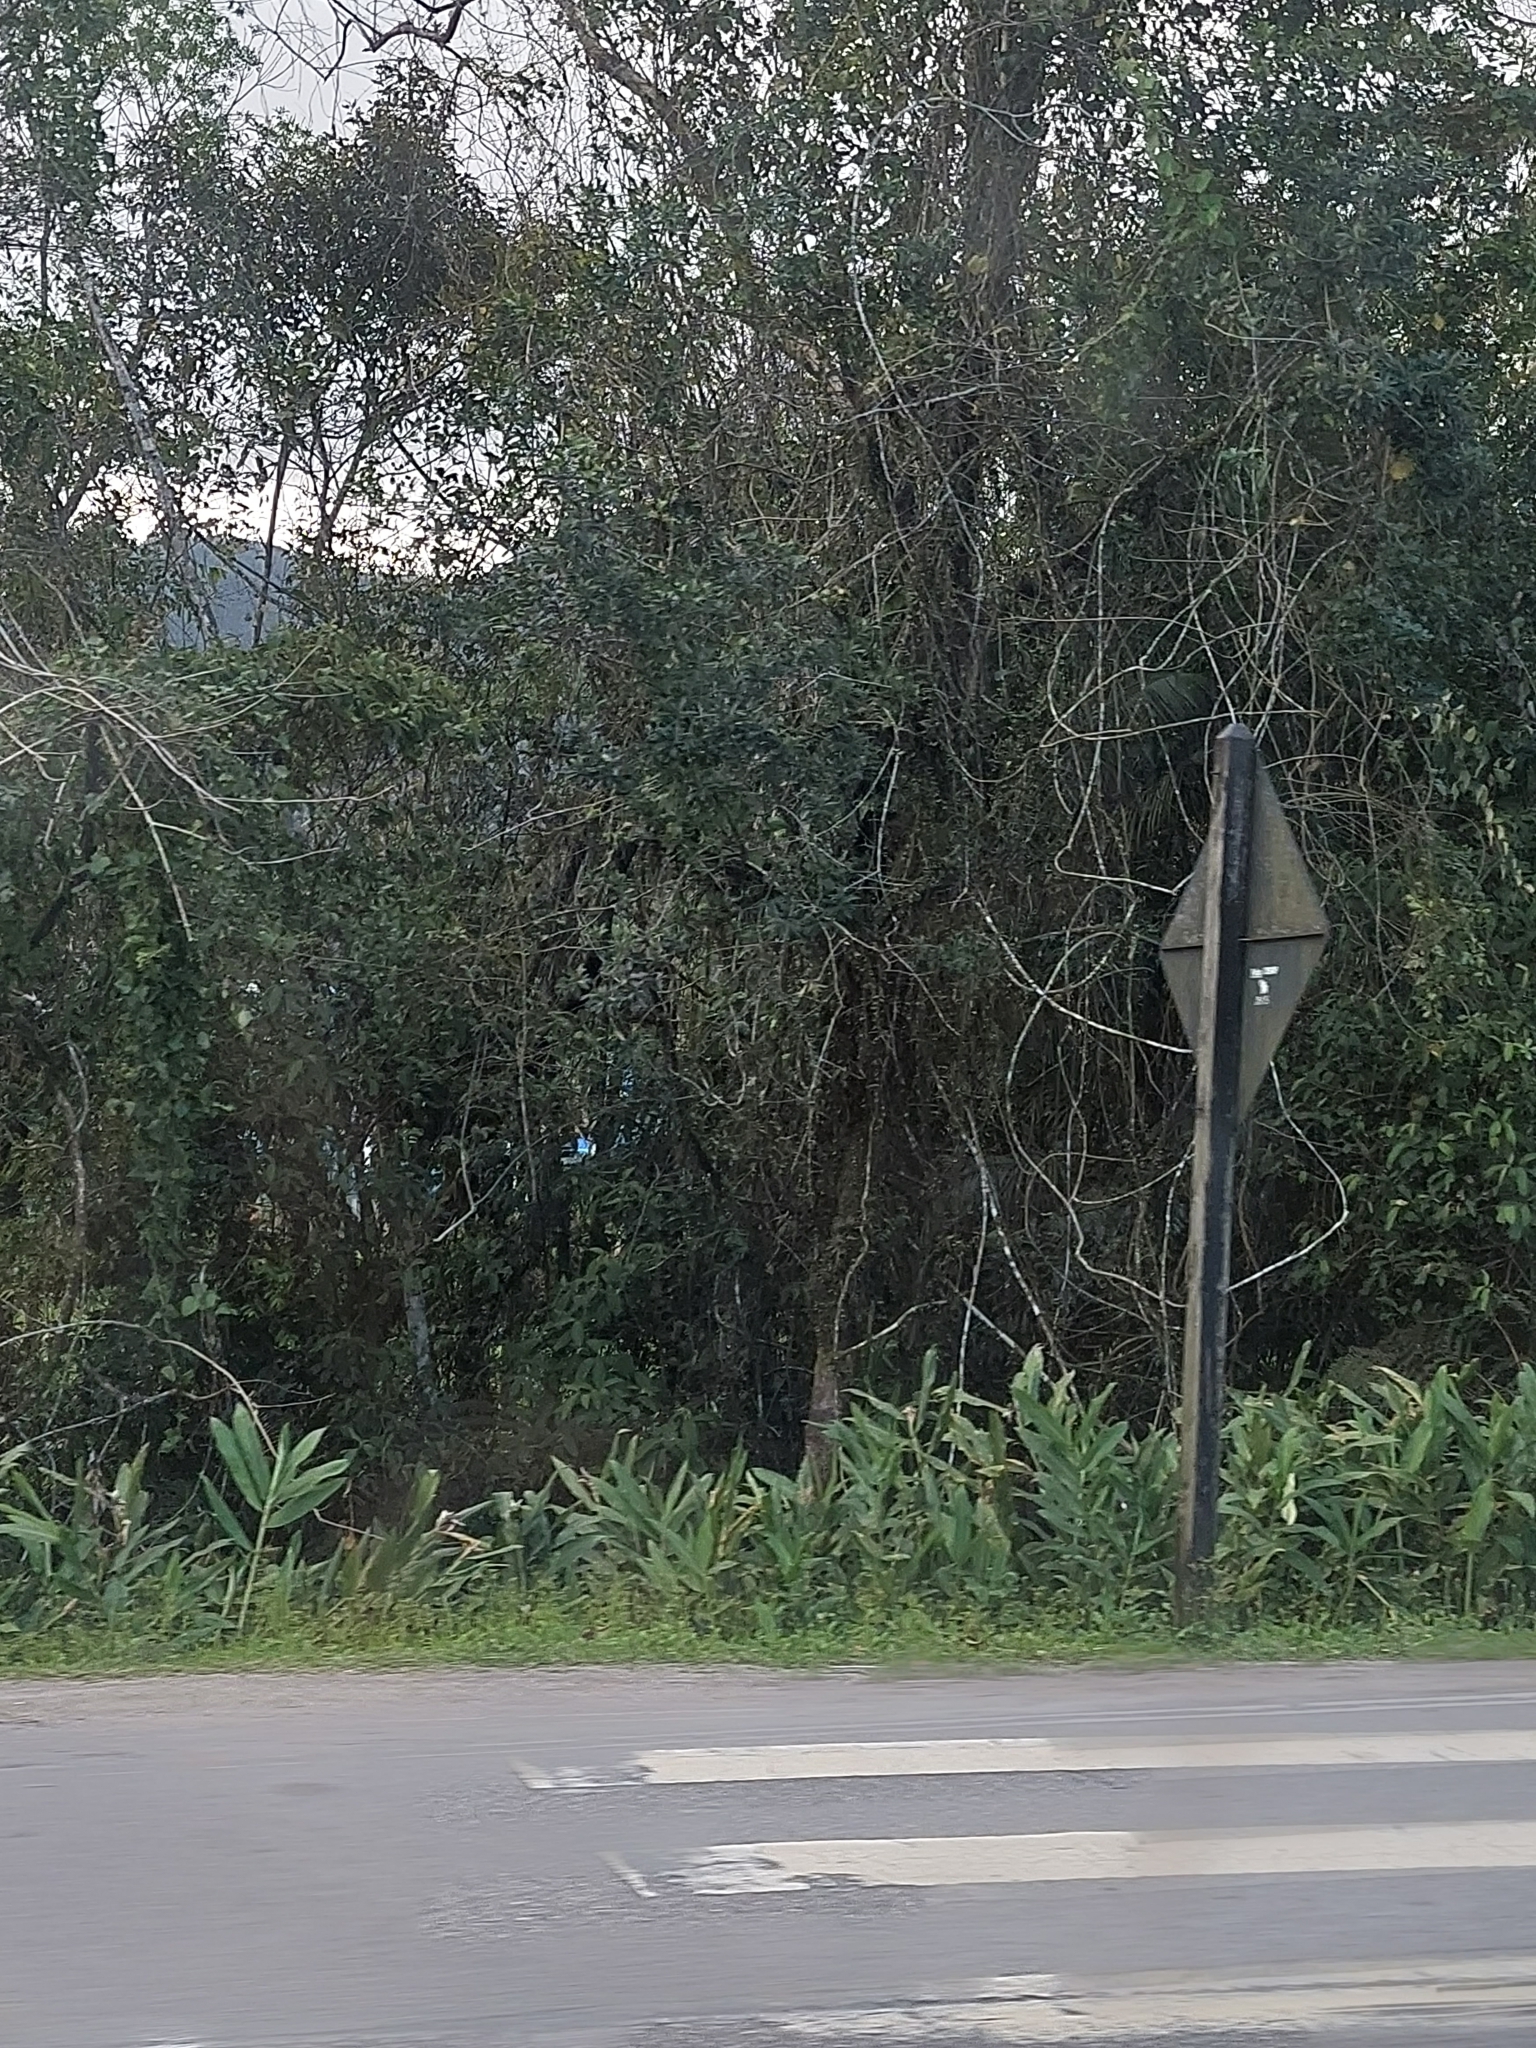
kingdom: Plantae
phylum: Tracheophyta
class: Liliopsida
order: Zingiberales
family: Zingiberaceae
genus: Hedychium
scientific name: Hedychium coronarium
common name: White garland-lily
